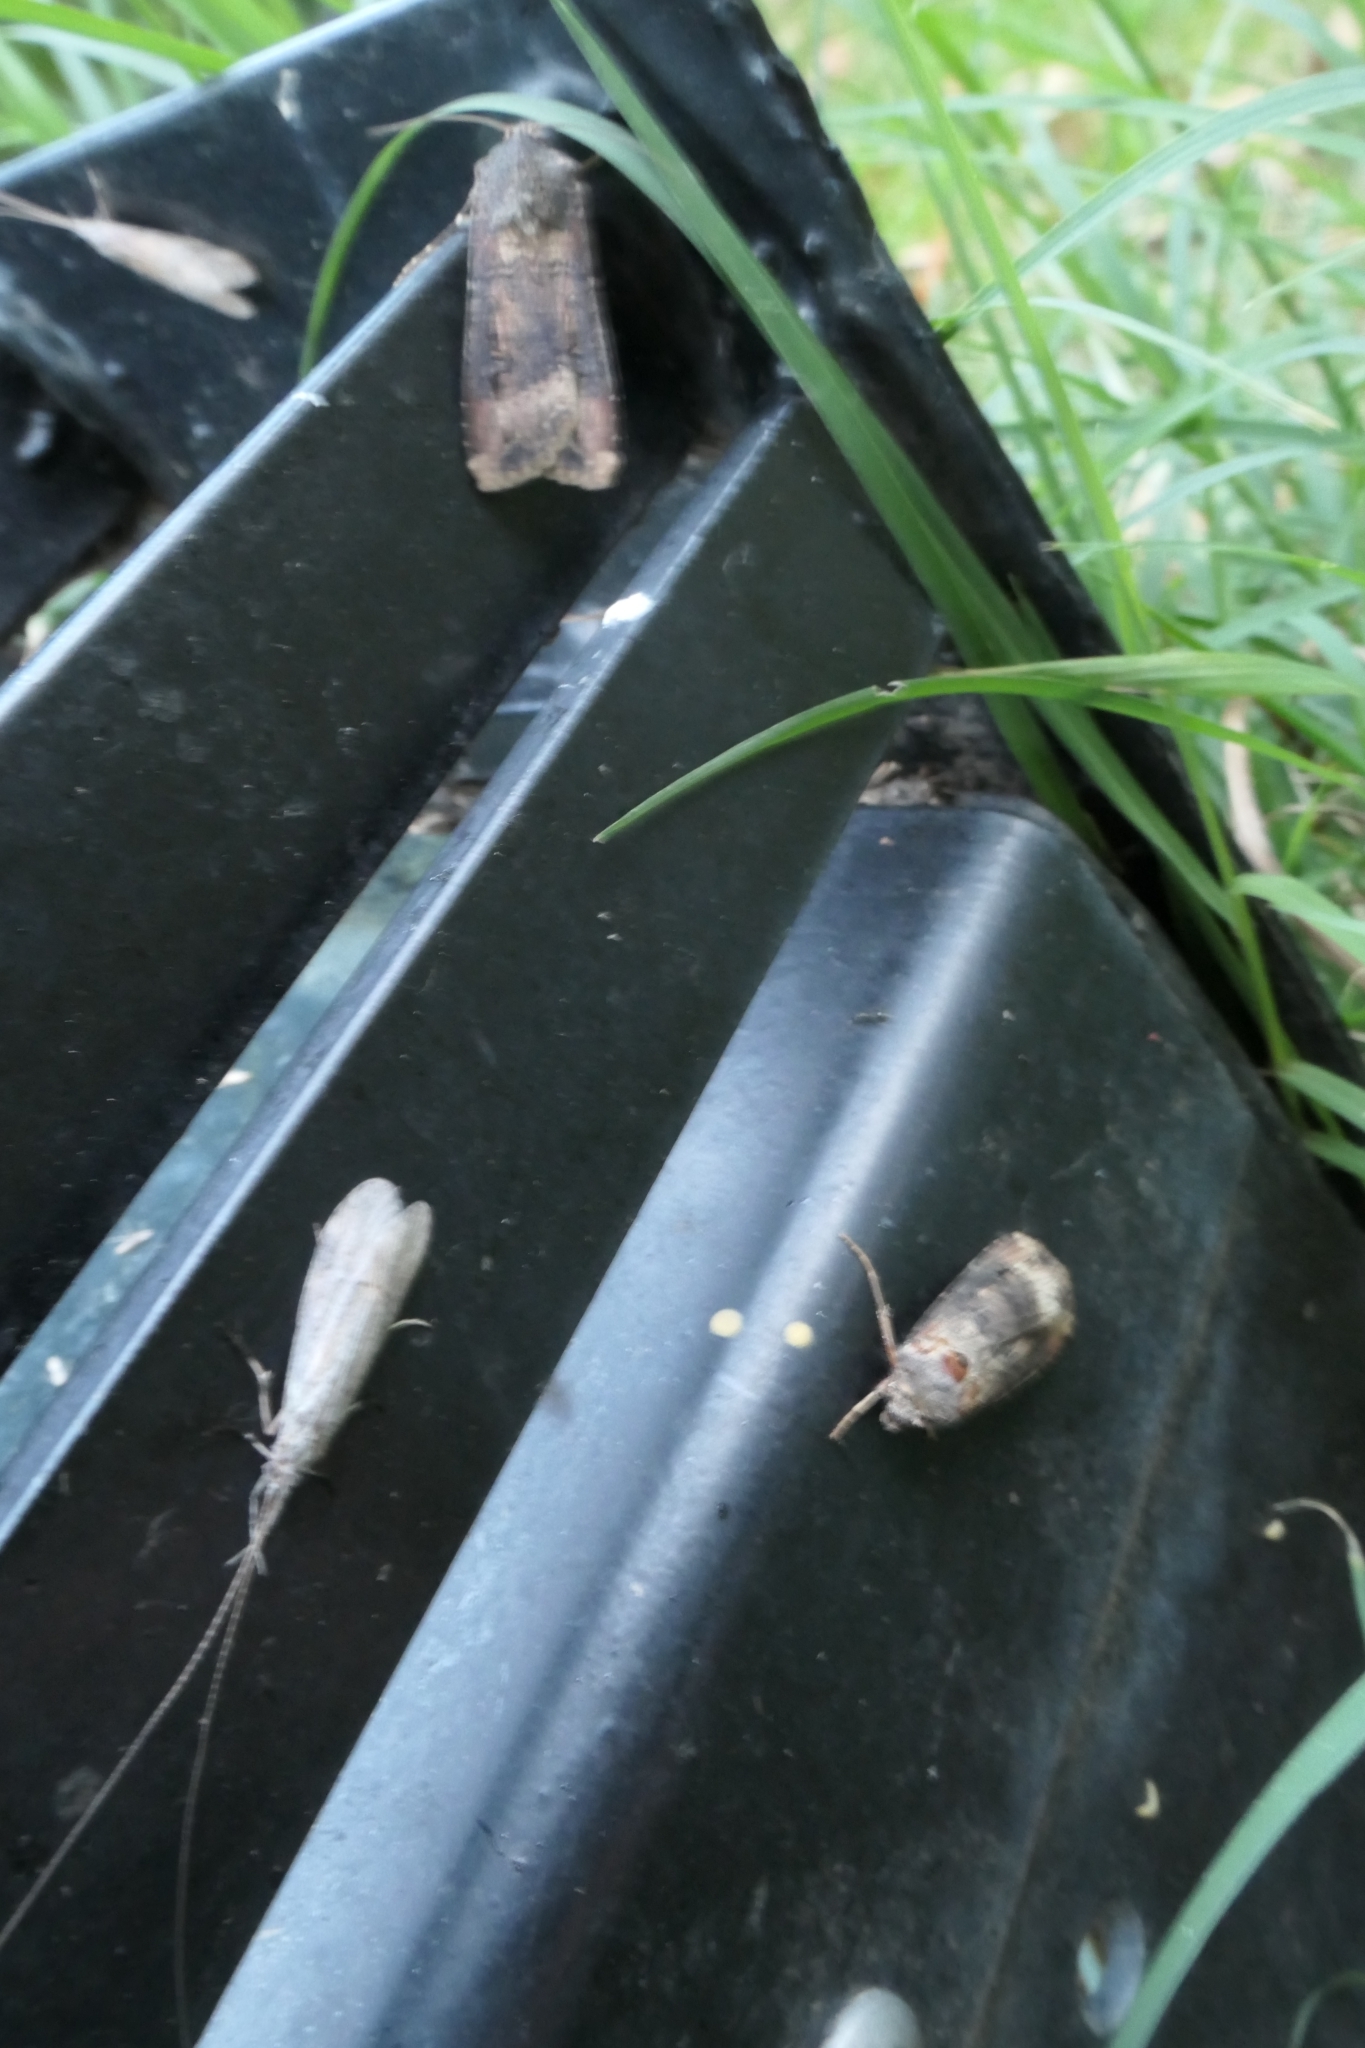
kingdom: Animalia
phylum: Arthropoda
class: Insecta
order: Lepidoptera
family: Noctuidae
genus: Agrotis
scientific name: Agrotis ipsilon
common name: Dark sword-grass
